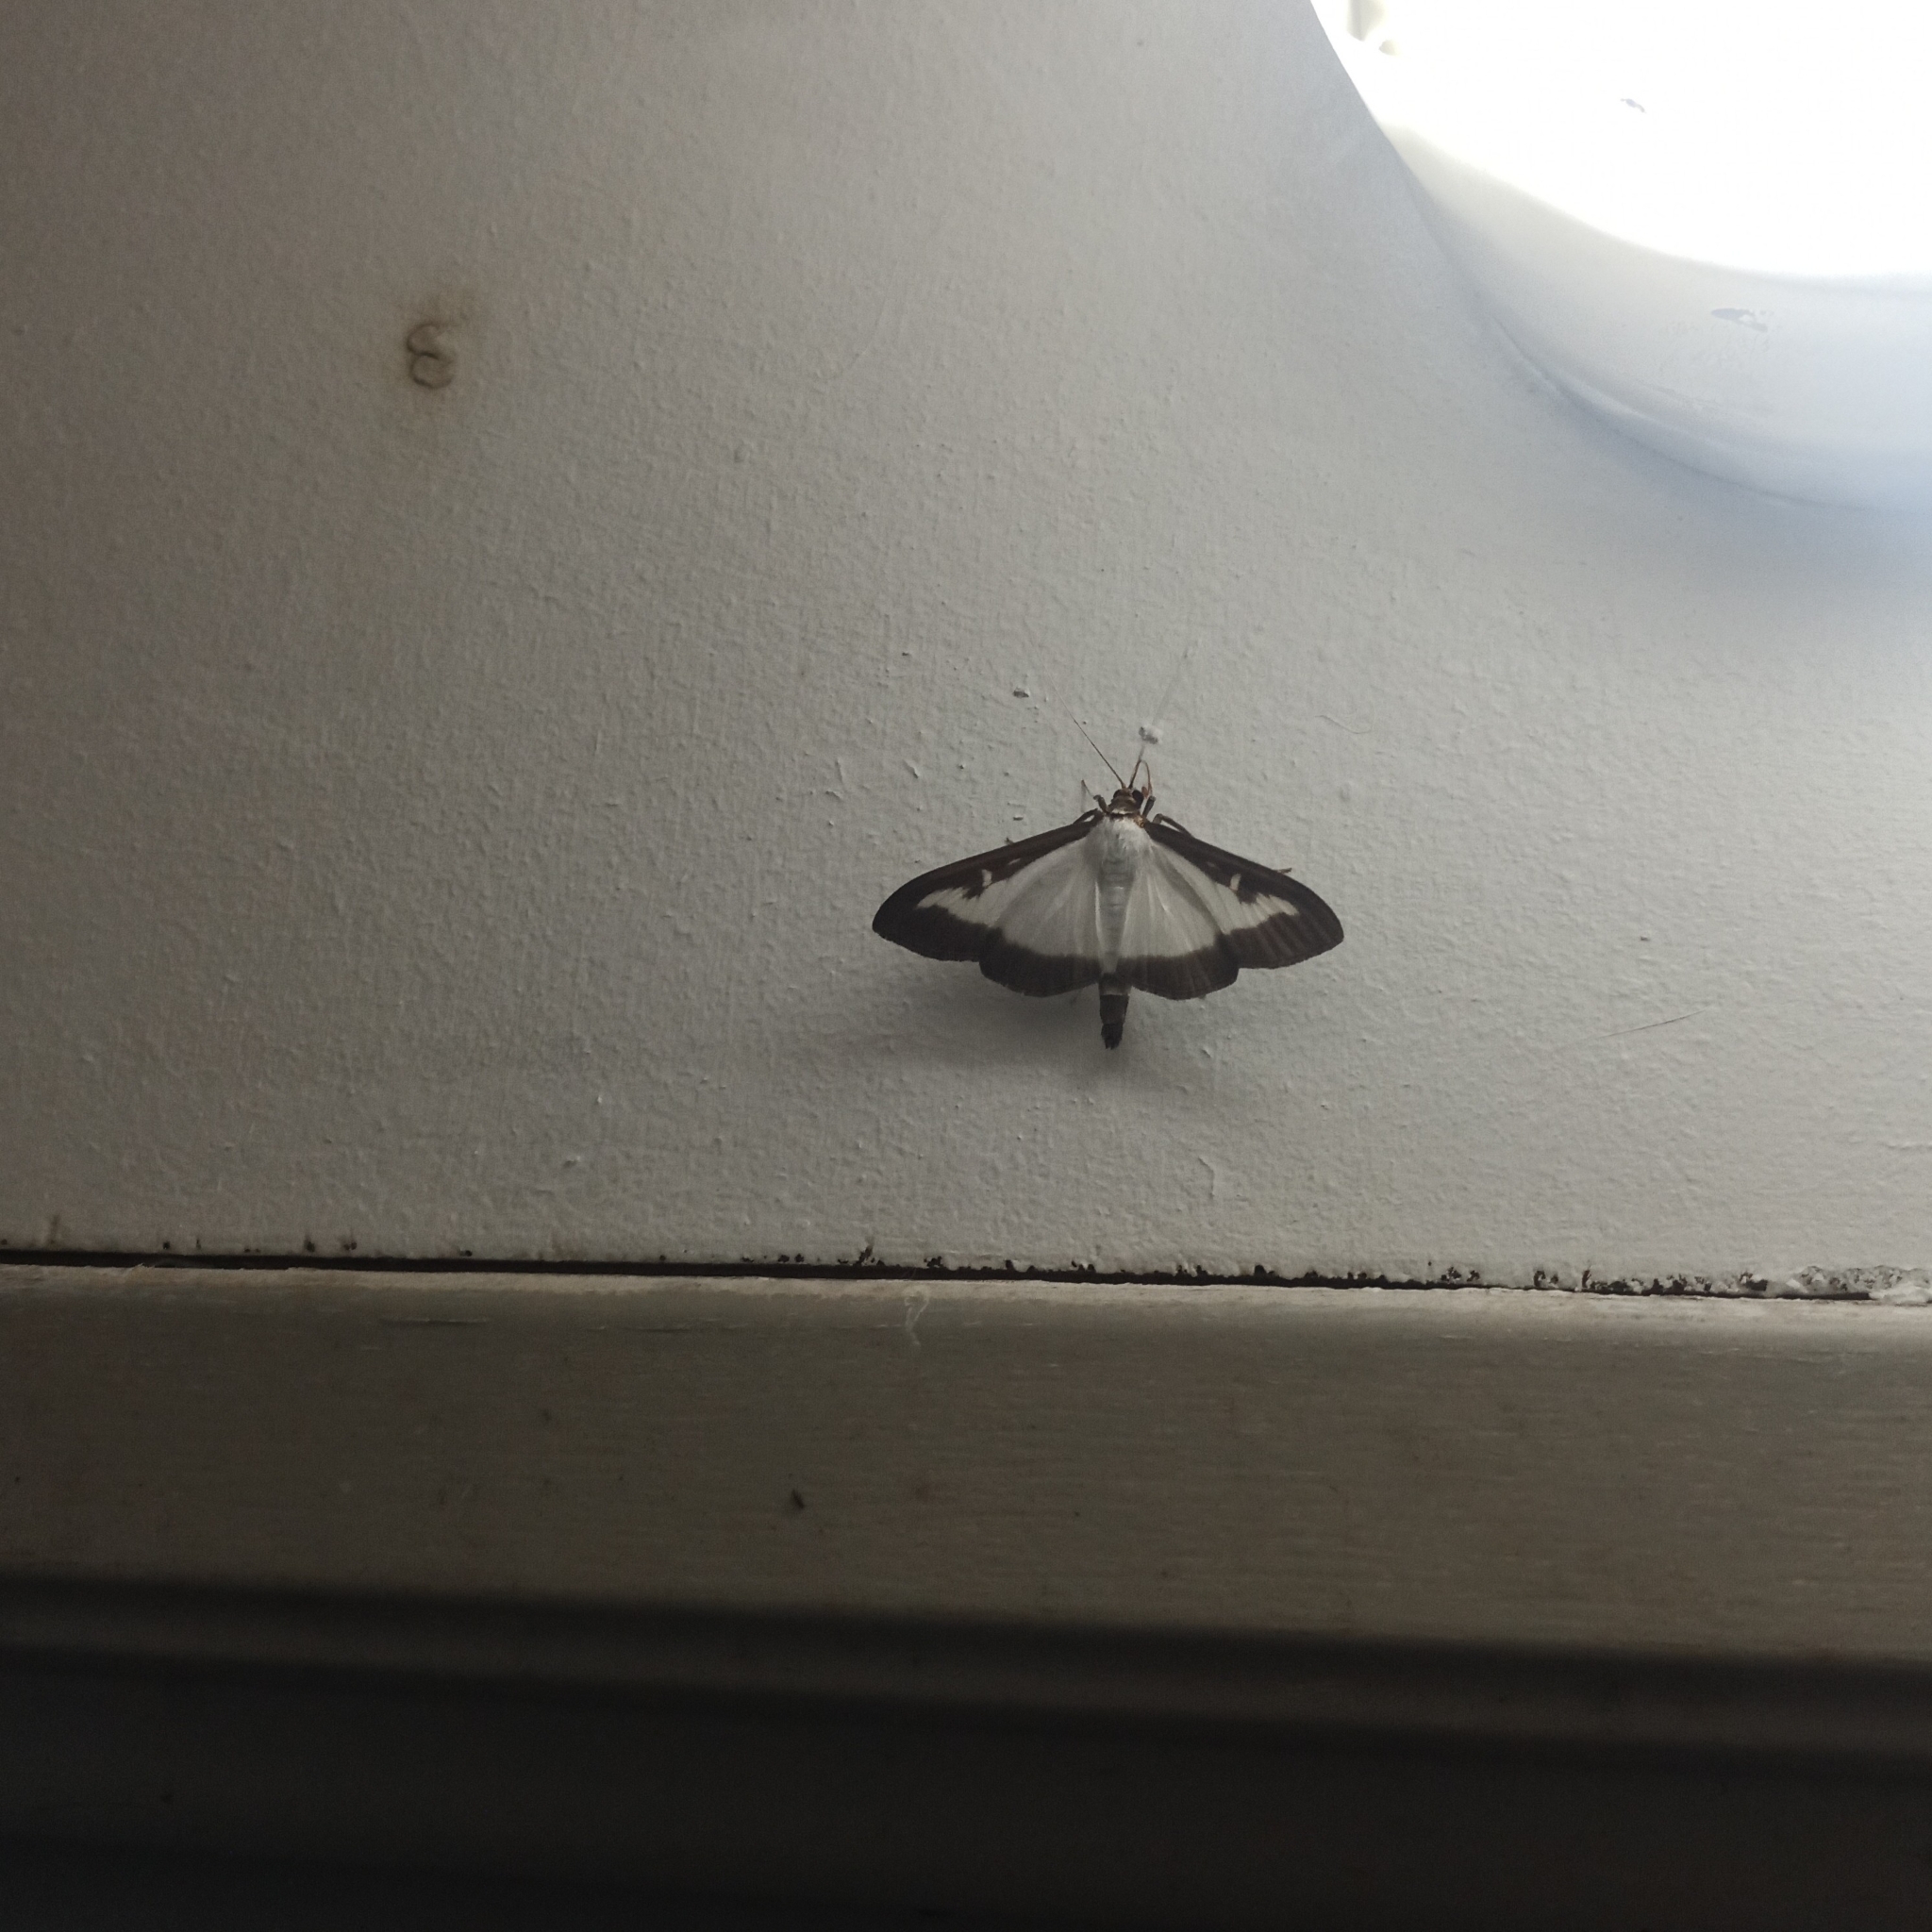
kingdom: Animalia
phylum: Arthropoda
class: Insecta
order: Lepidoptera
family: Crambidae
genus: Cydalima
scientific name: Cydalima perspectalis
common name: Box tree moth
